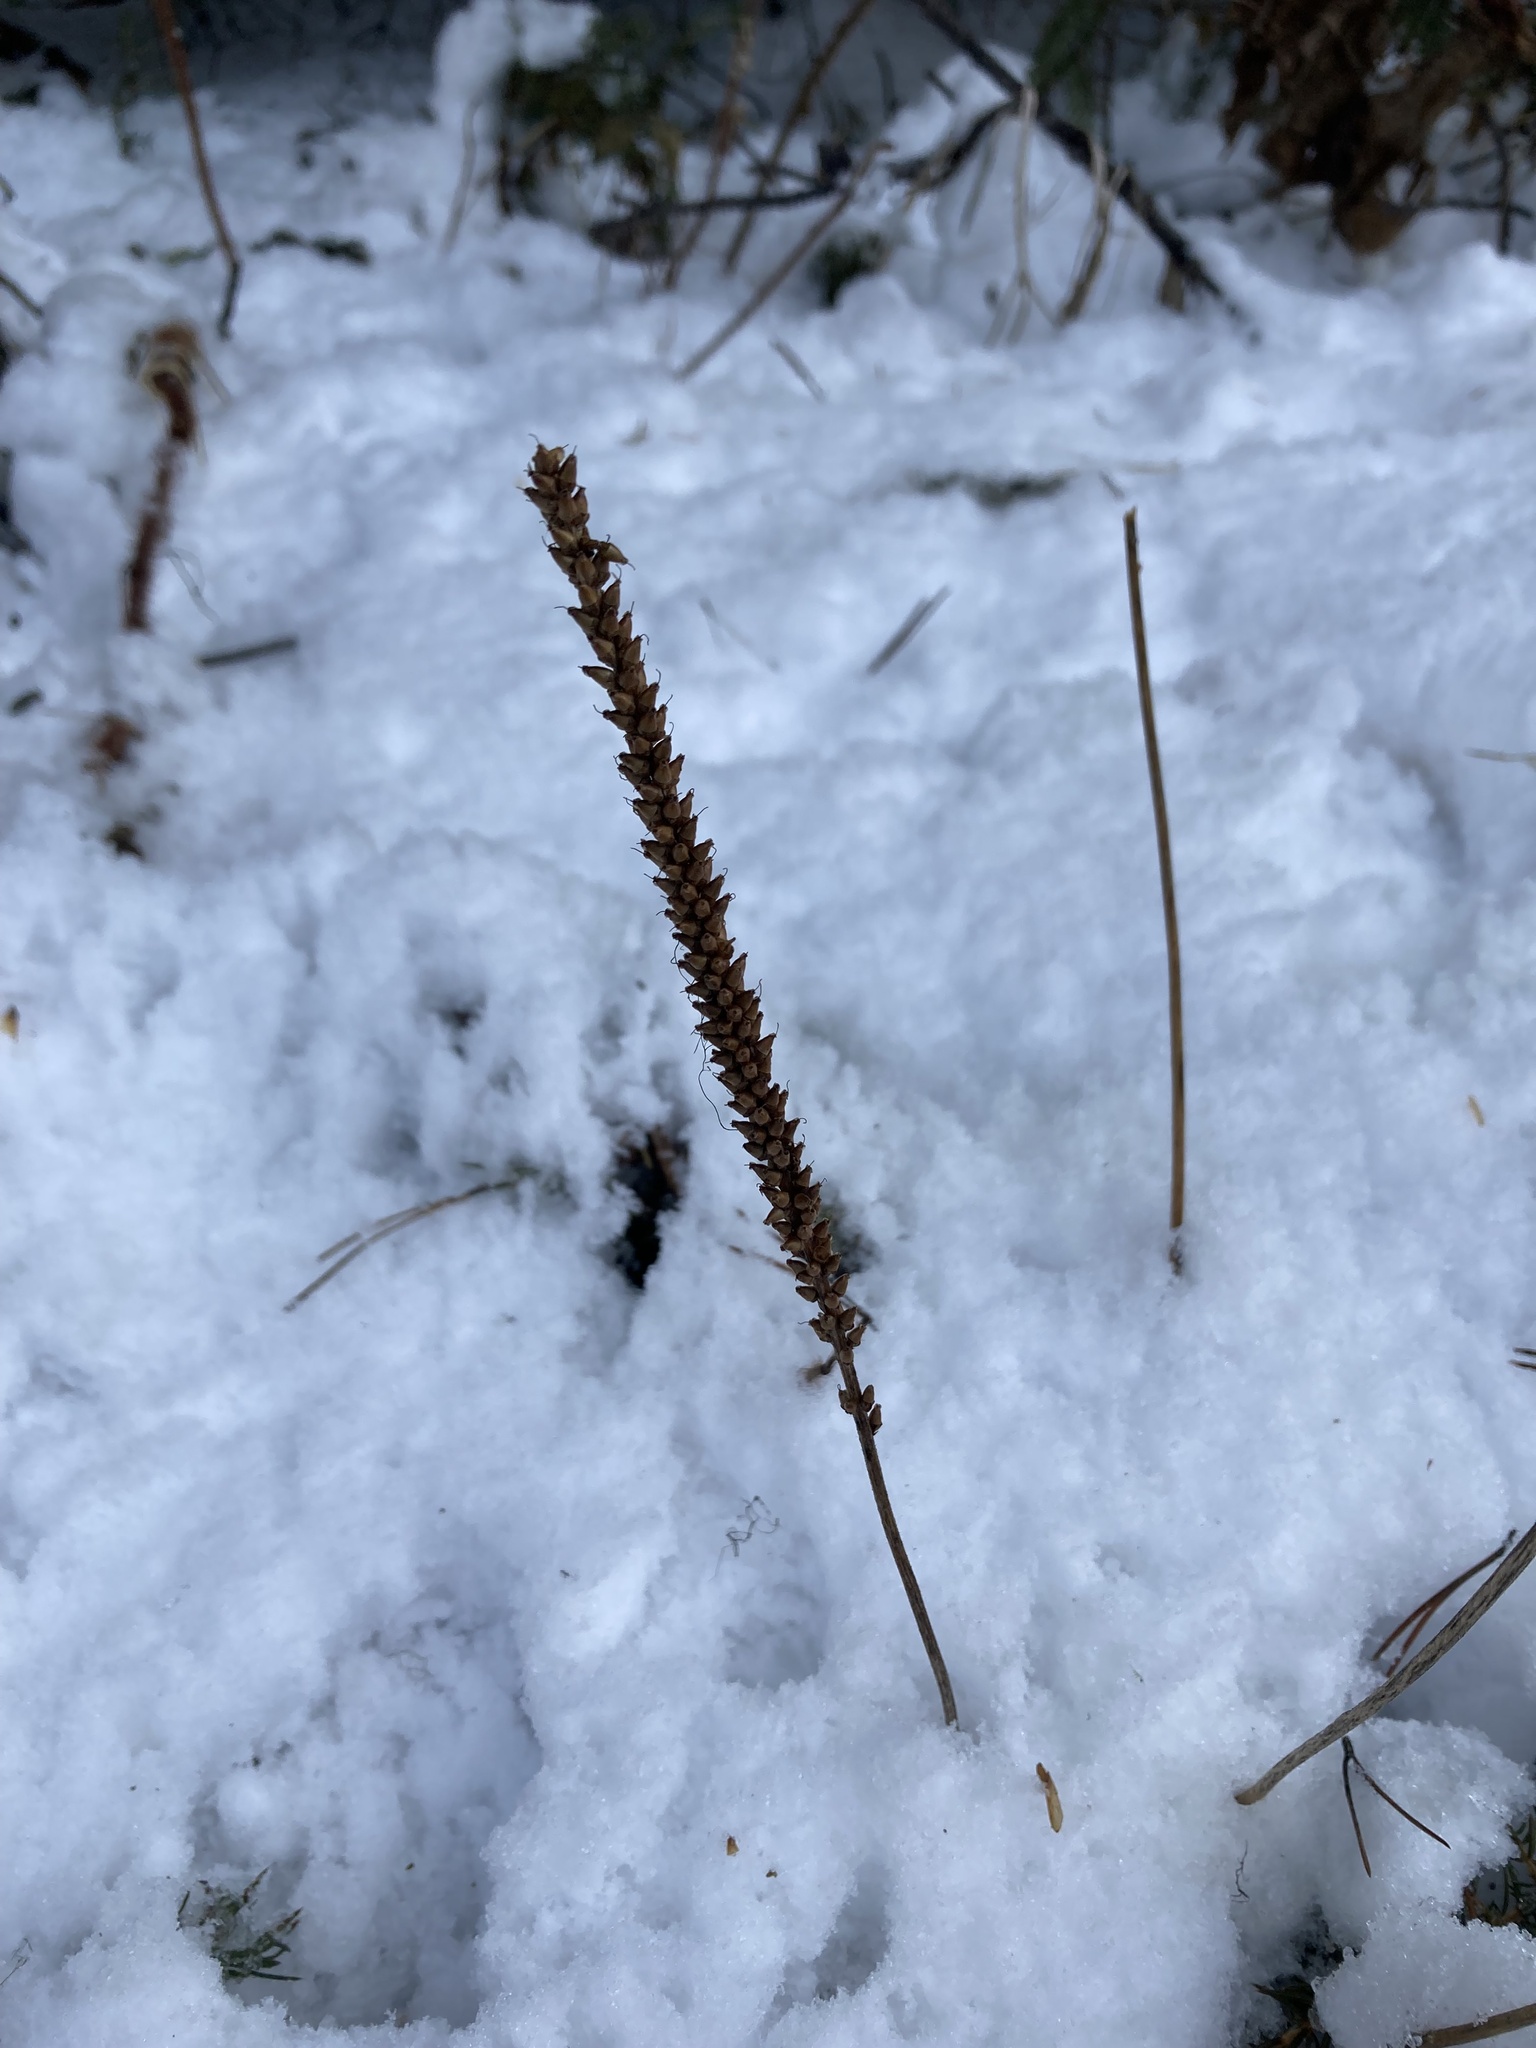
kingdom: Plantae
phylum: Tracheophyta
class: Magnoliopsida
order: Lamiales
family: Plantaginaceae
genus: Plantago
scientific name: Plantago major
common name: Common plantain
